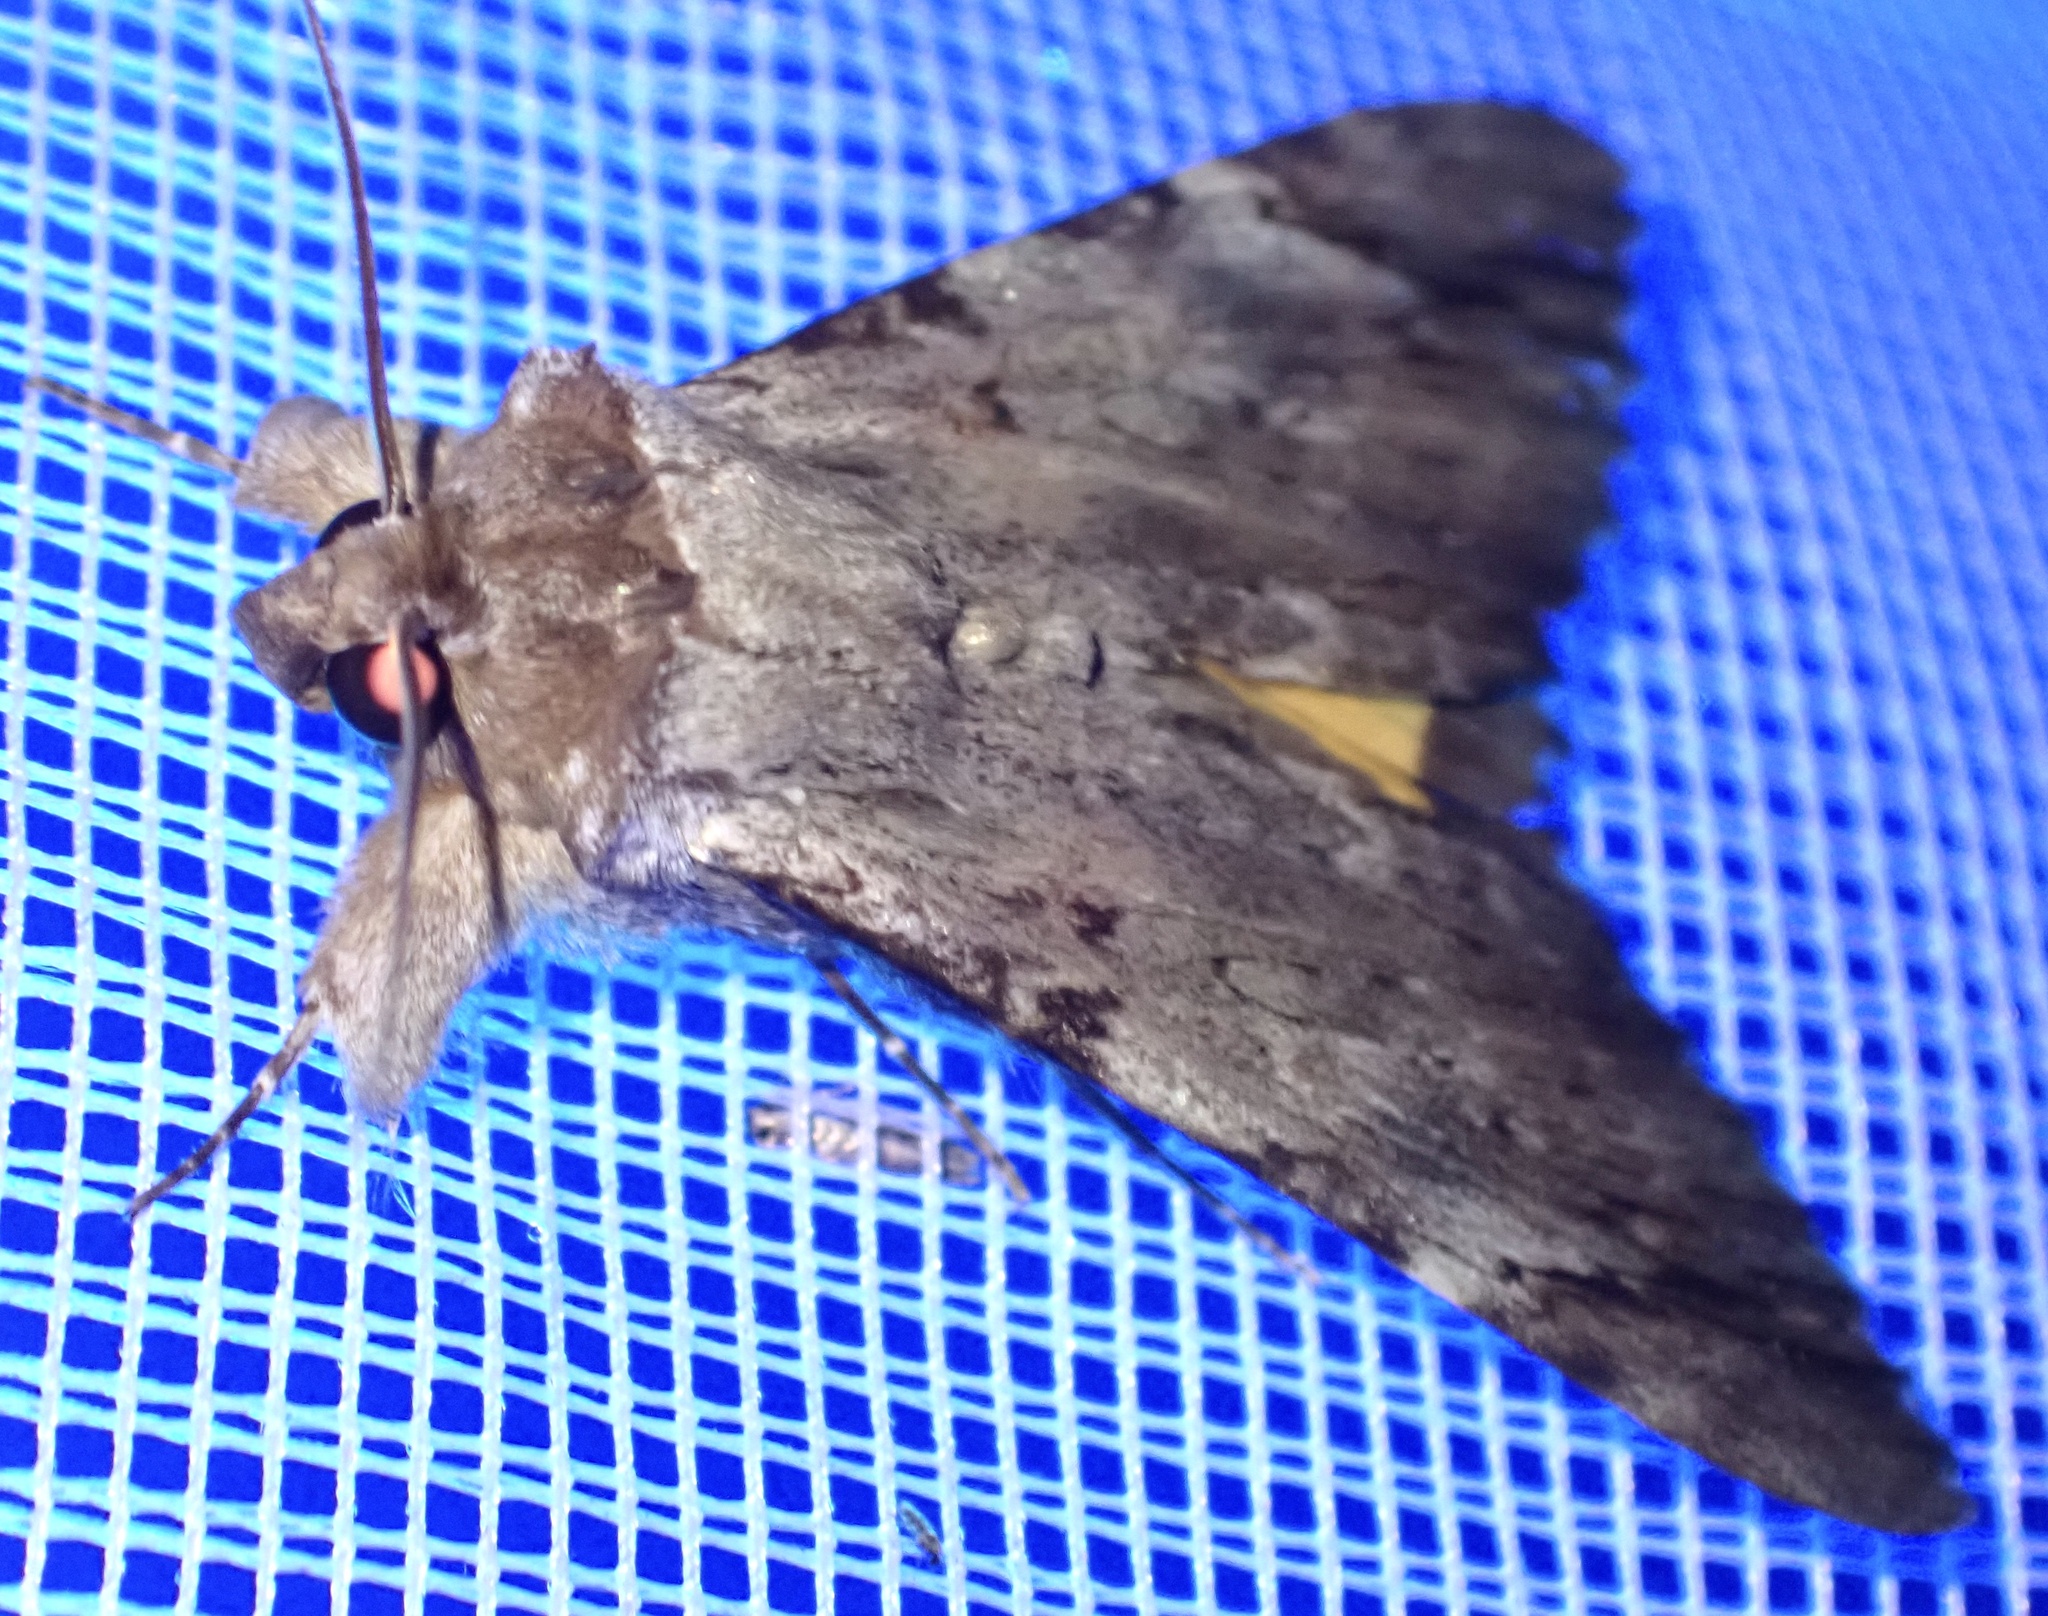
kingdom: Animalia
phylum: Arthropoda
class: Insecta
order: Lepidoptera
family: Erebidae
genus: Ulotrichopus
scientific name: Ulotrichopus dinawa
